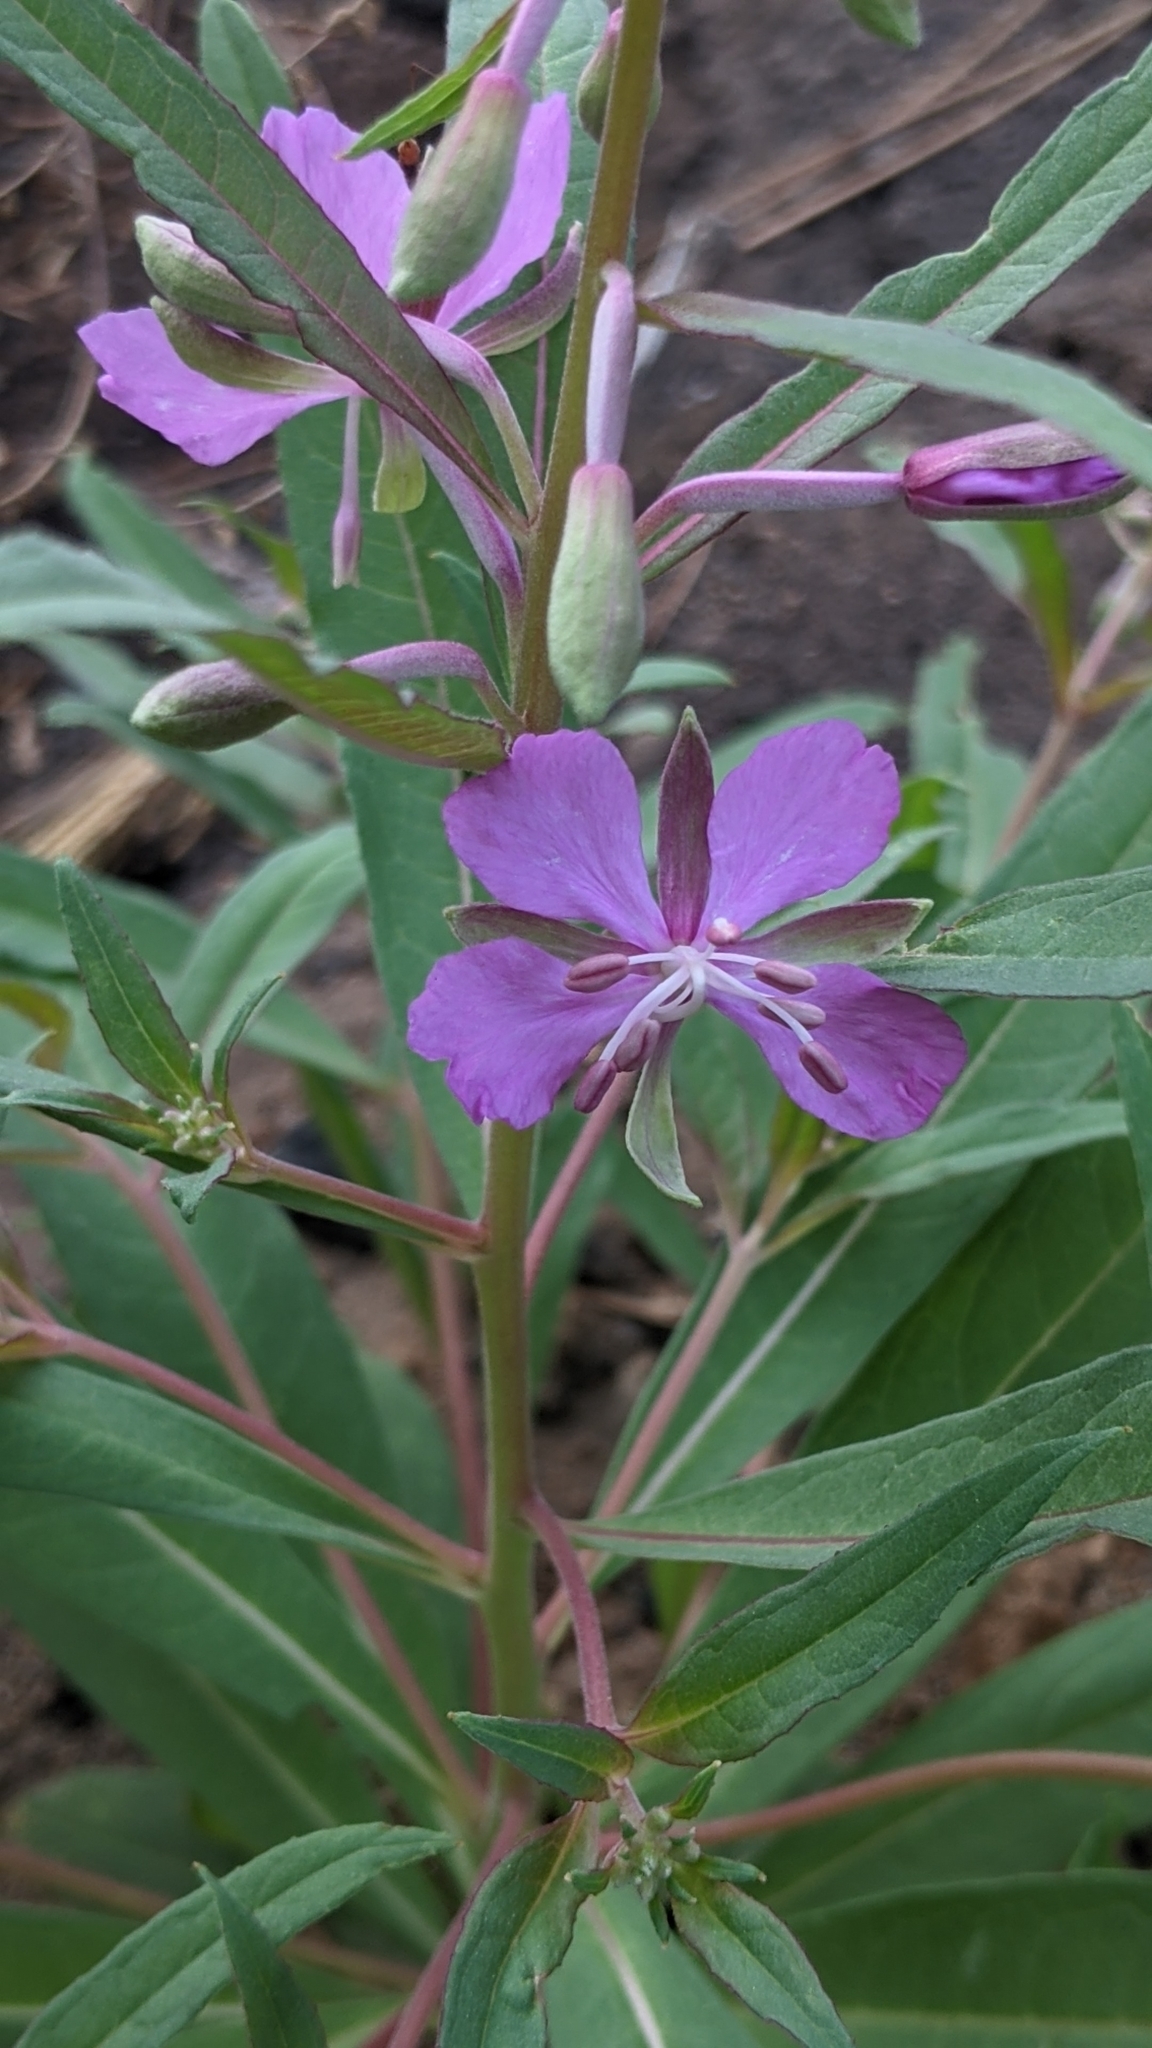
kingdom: Plantae
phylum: Tracheophyta
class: Magnoliopsida
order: Myrtales
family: Onagraceae
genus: Chamaenerion
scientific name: Chamaenerion angustifolium
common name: Fireweed
